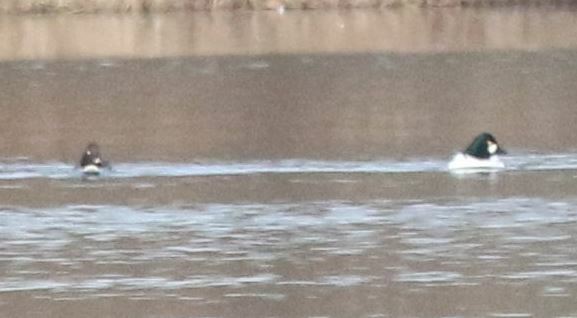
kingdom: Animalia
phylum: Chordata
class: Aves
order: Anseriformes
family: Anatidae
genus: Bucephala
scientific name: Bucephala clangula
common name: Common goldeneye
